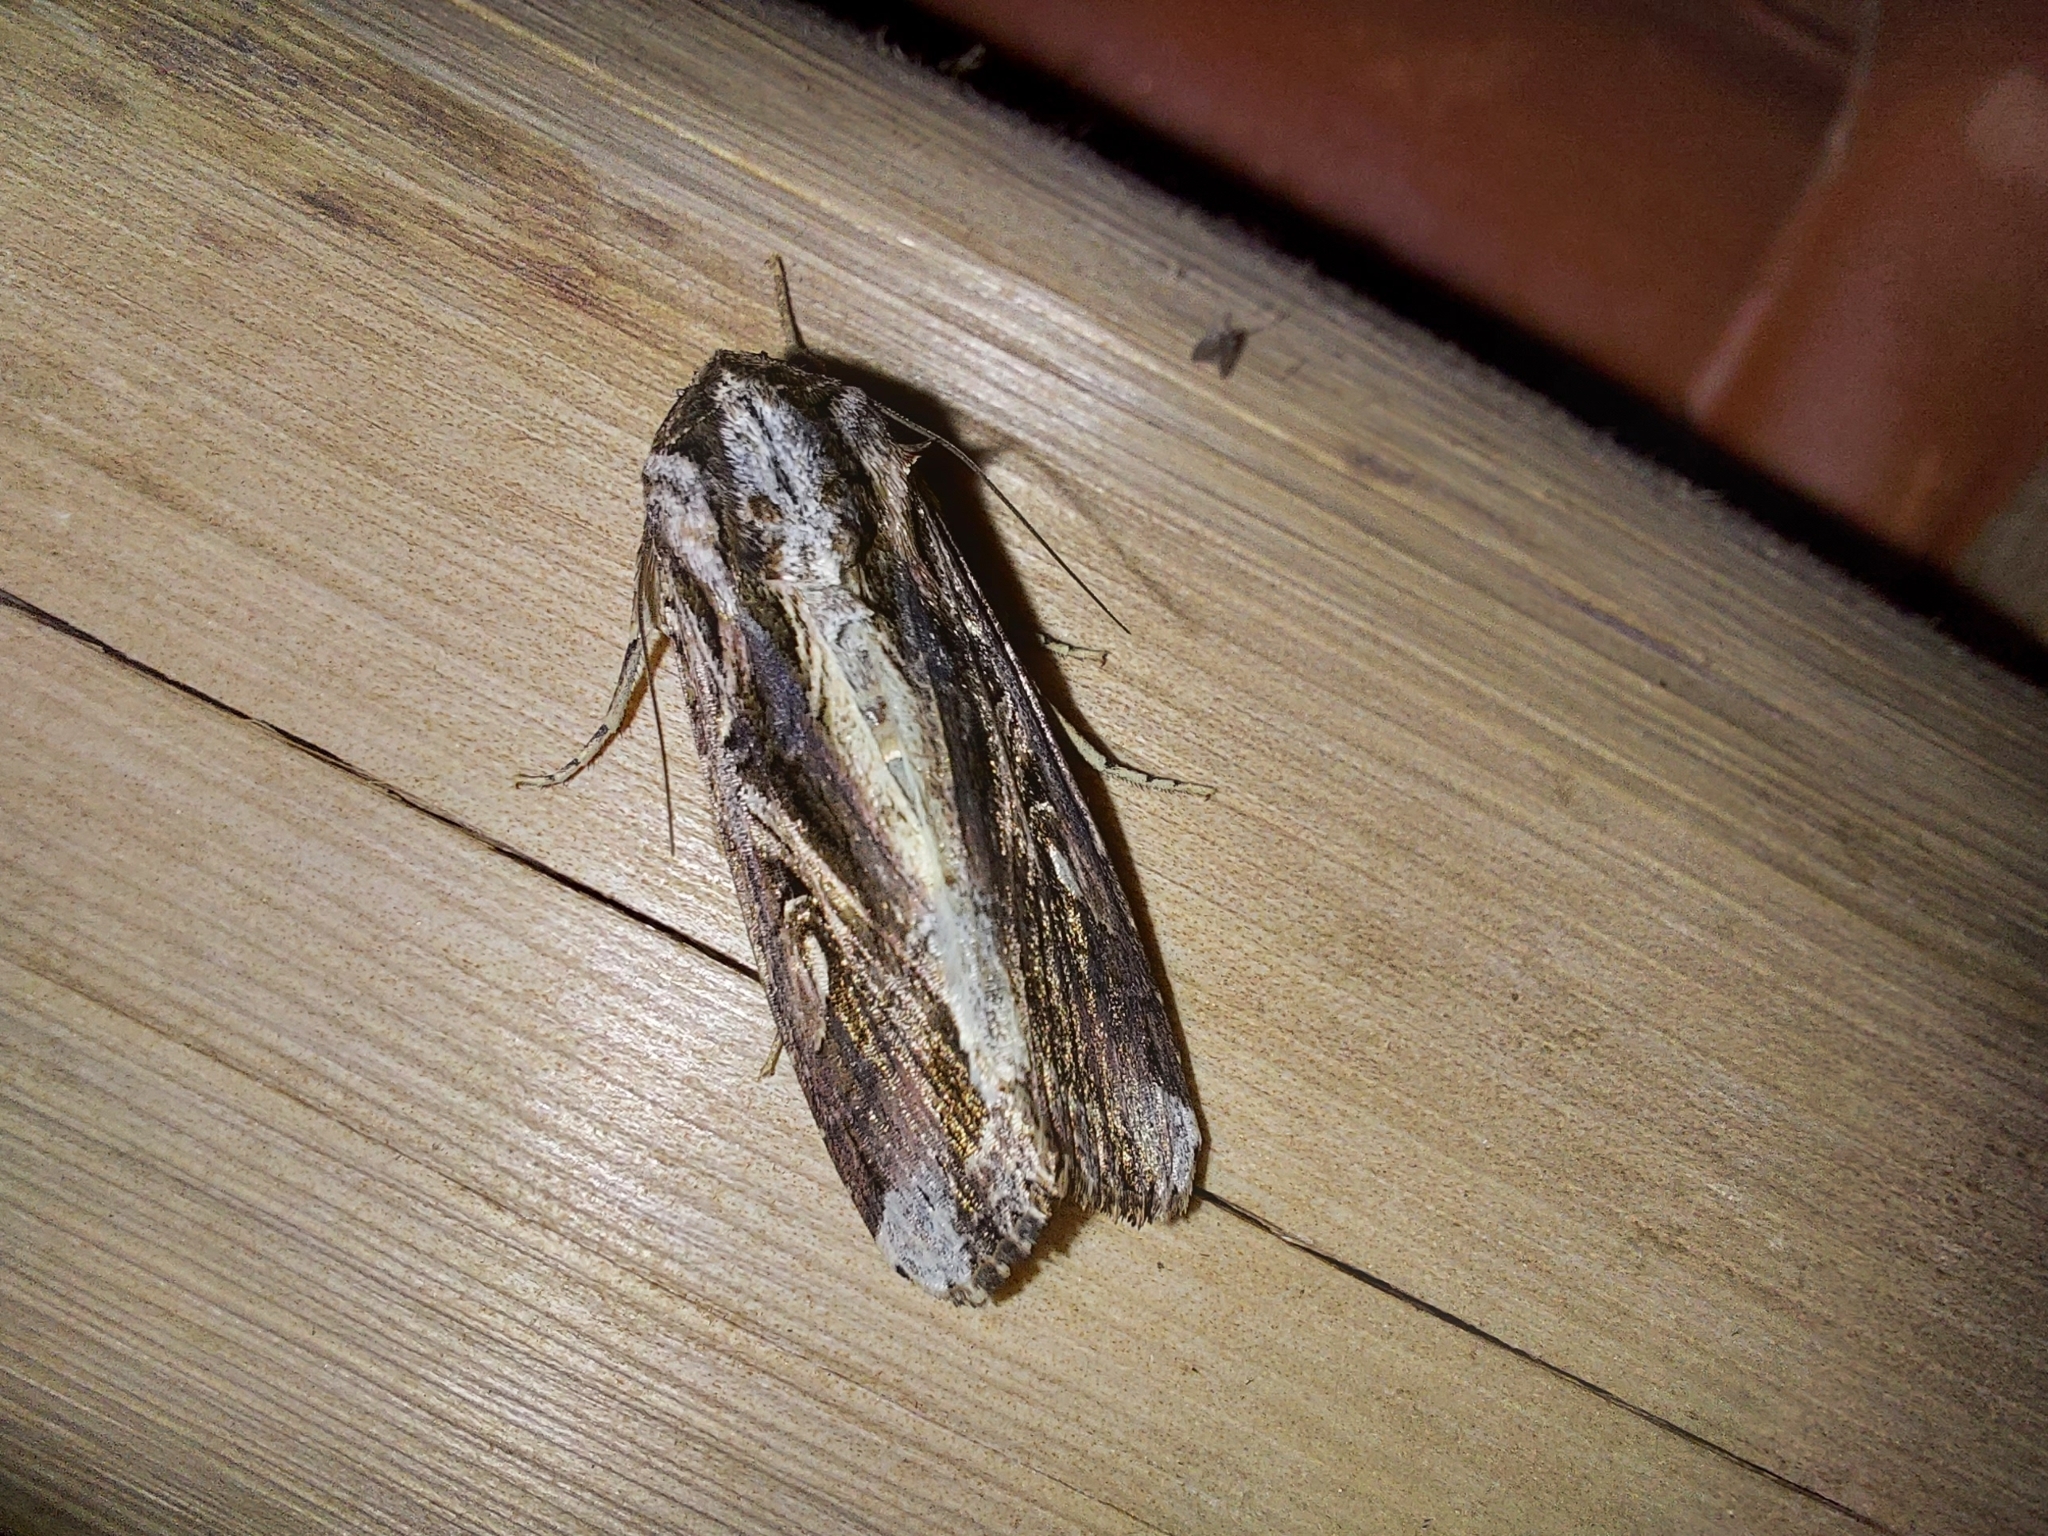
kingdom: Animalia
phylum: Arthropoda
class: Insecta
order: Lepidoptera
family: Noctuidae
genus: Spodoptera
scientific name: Spodoptera dolichos
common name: Sweetpotato armyworm
